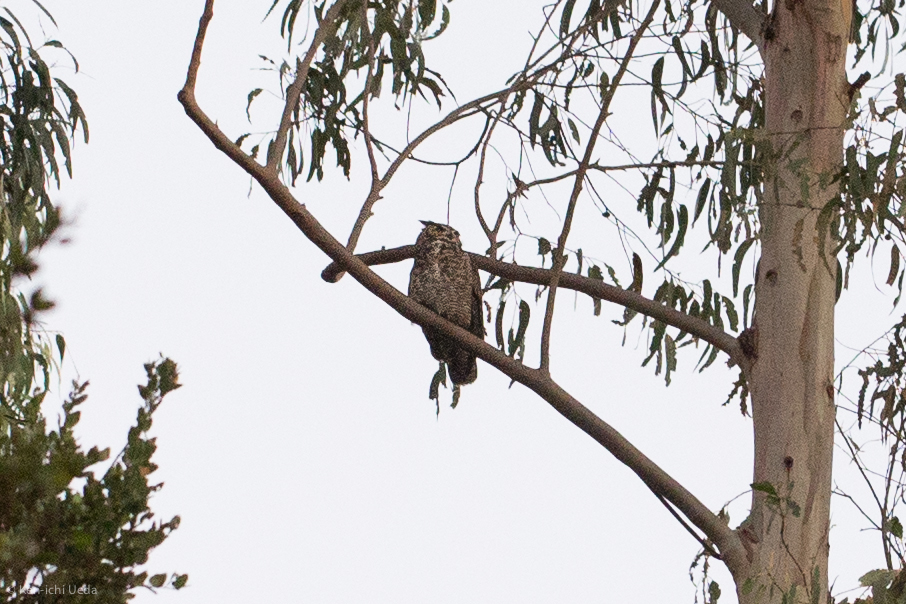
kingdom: Animalia
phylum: Chordata
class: Aves
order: Strigiformes
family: Strigidae
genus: Bubo
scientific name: Bubo virginianus
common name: Great horned owl
